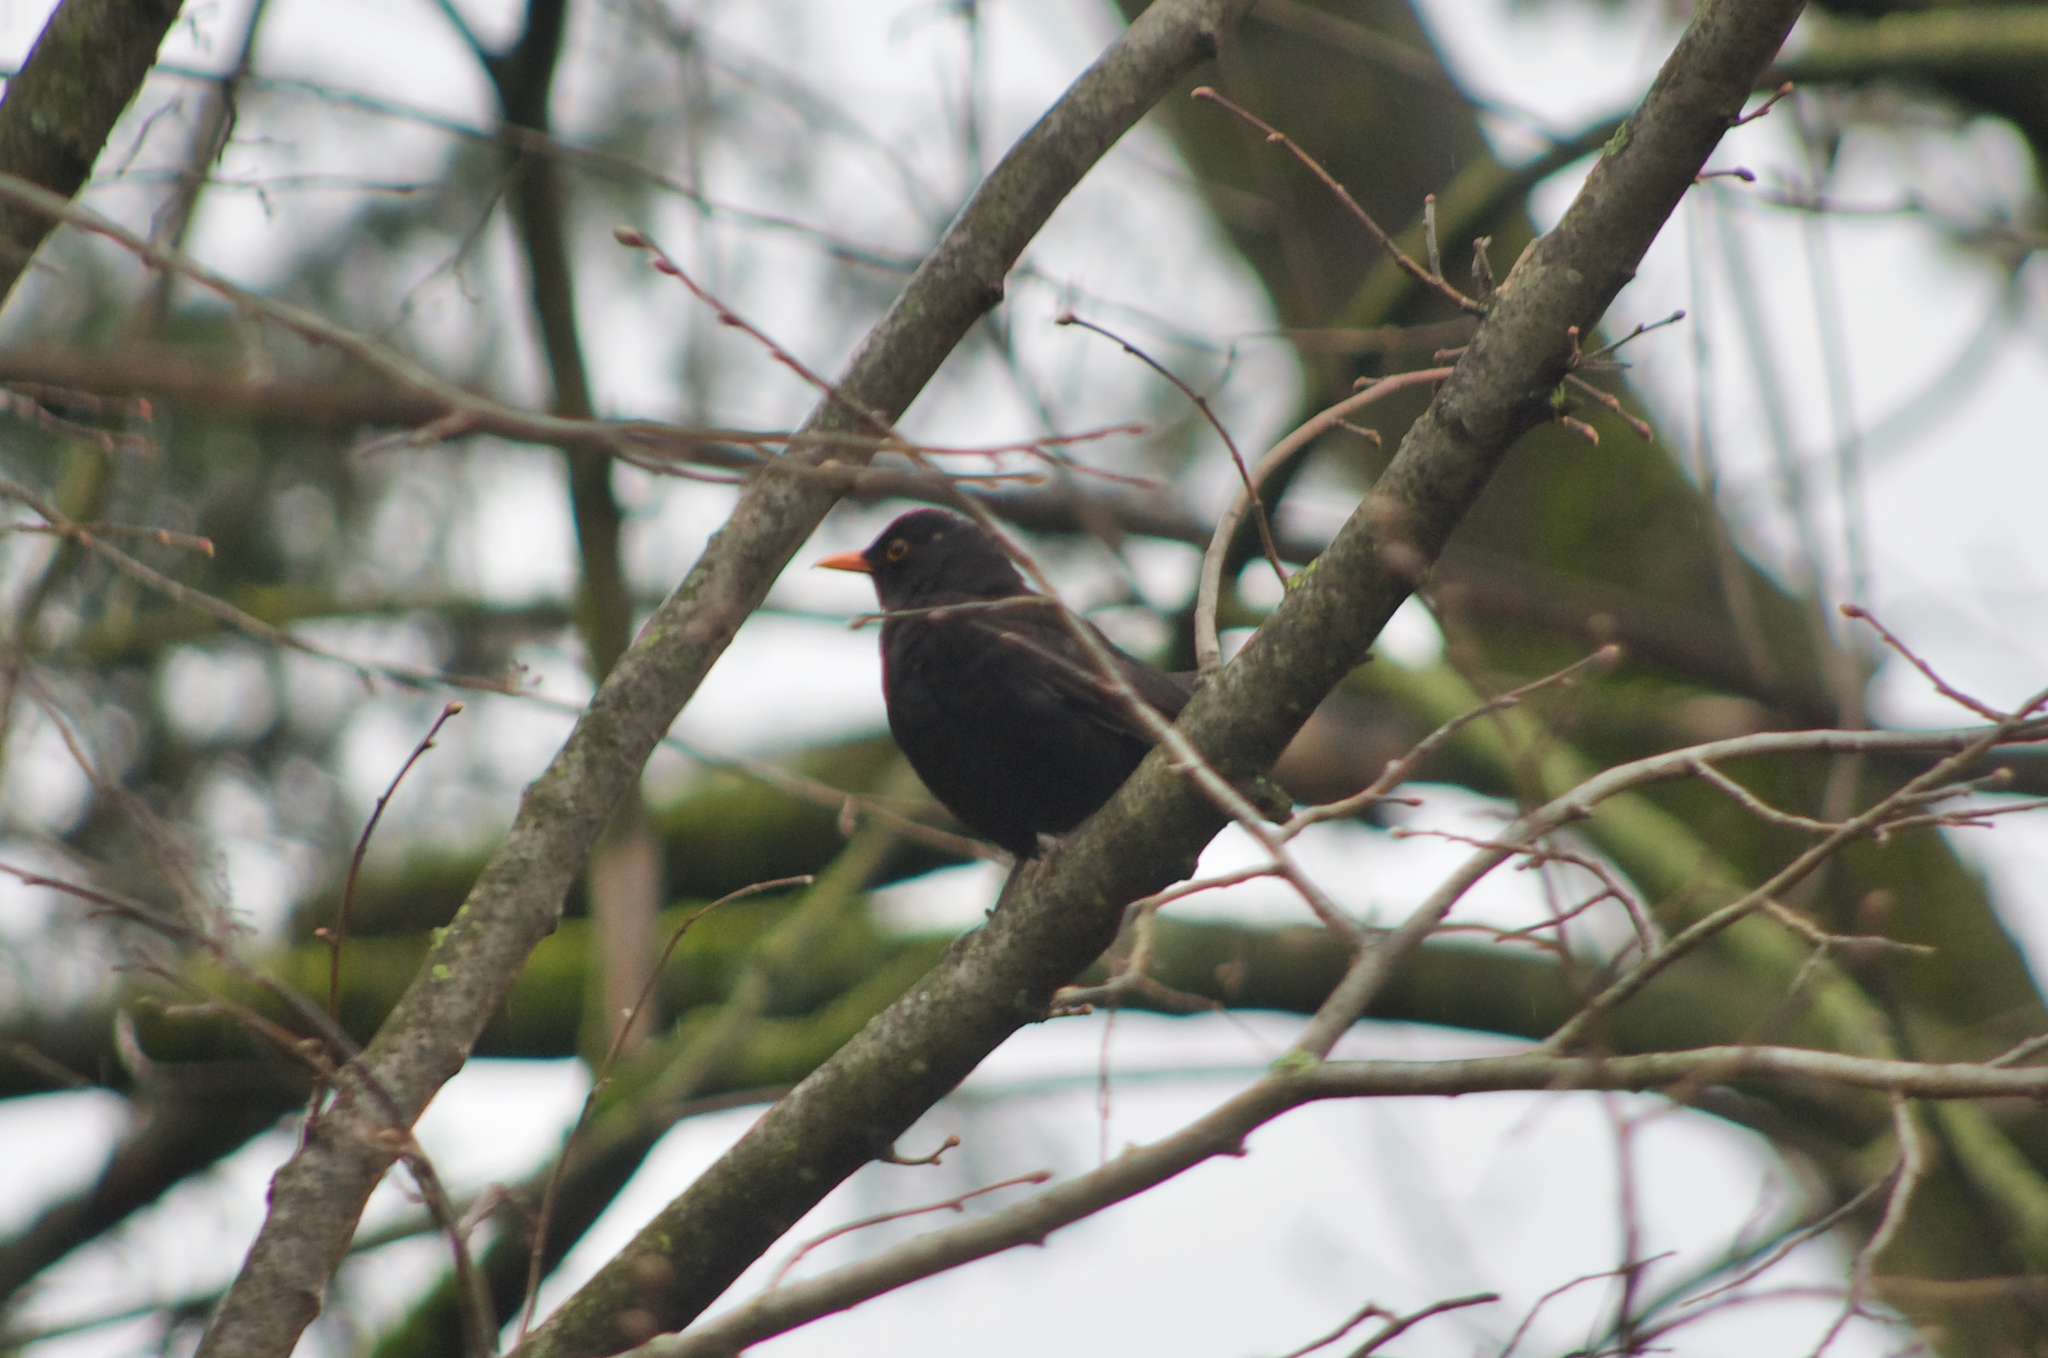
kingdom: Animalia
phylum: Chordata
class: Aves
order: Passeriformes
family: Turdidae
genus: Turdus
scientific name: Turdus merula
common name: Common blackbird
